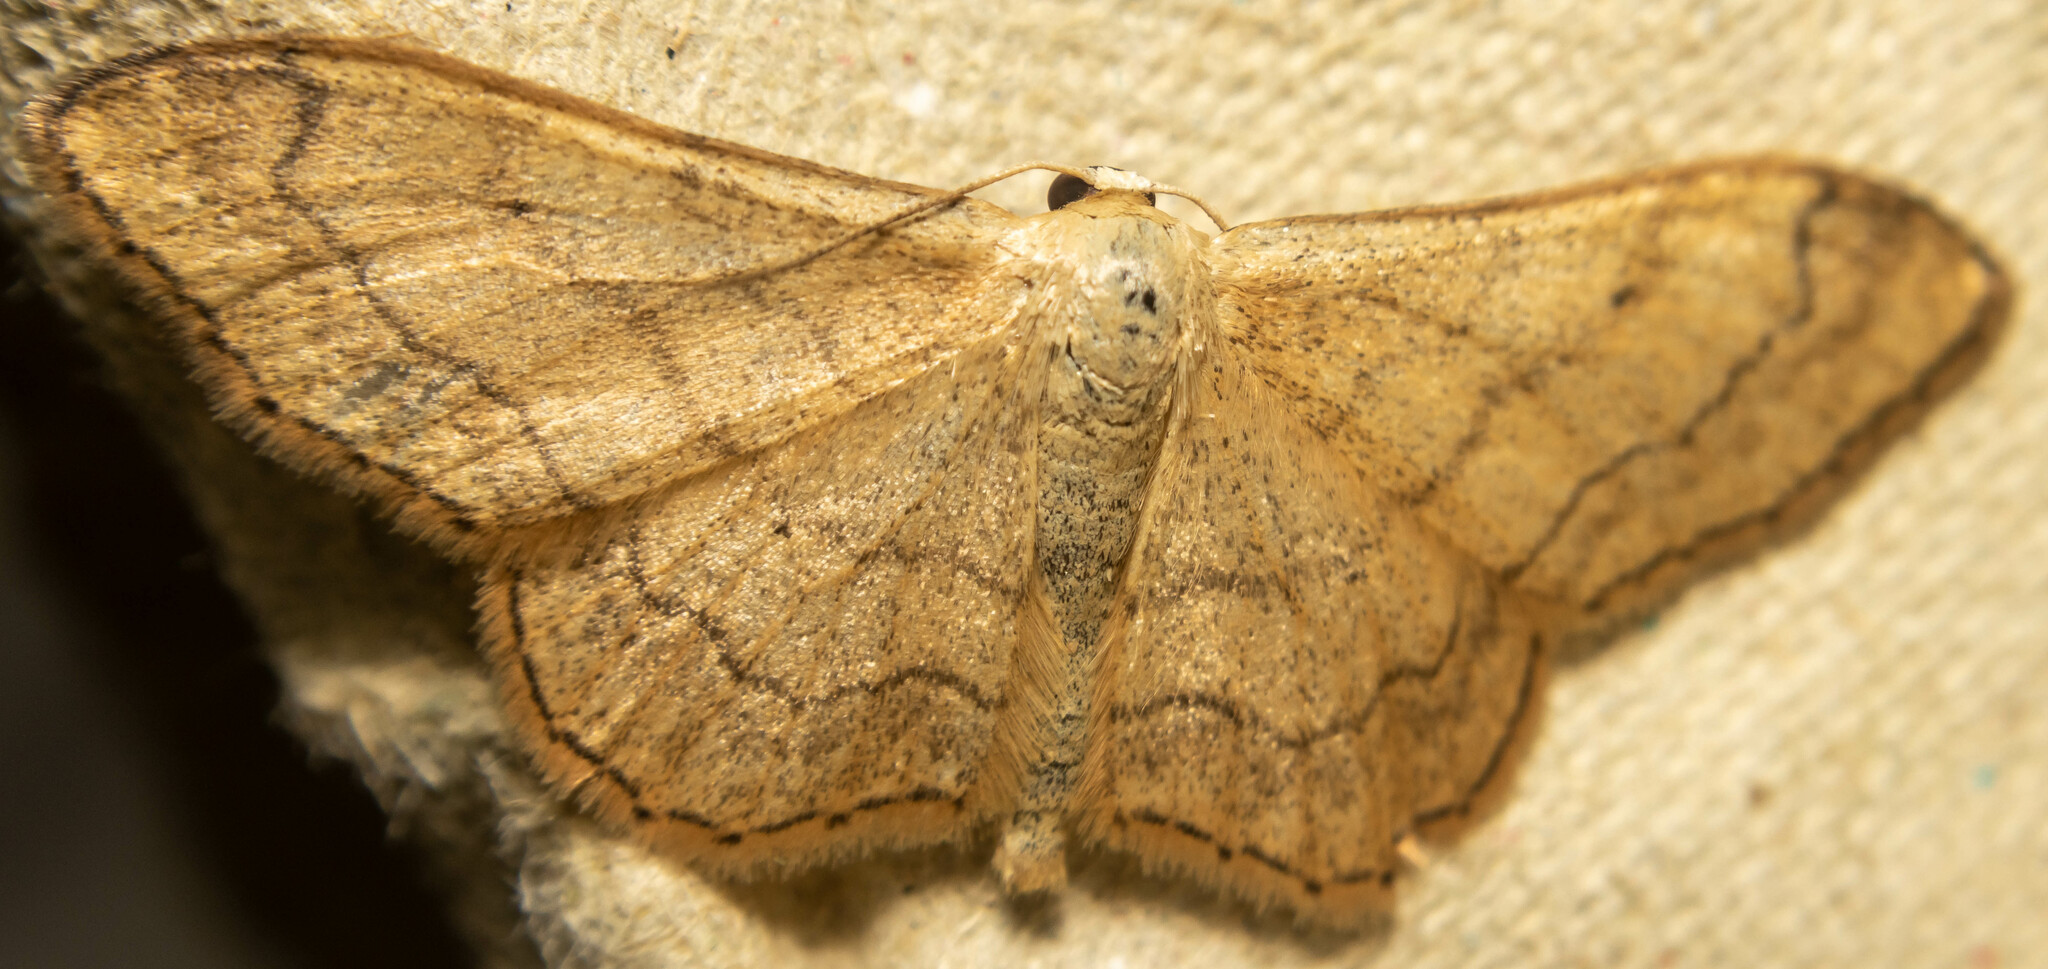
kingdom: Animalia
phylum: Arthropoda
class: Insecta
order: Lepidoptera
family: Geometridae
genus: Idaea
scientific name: Idaea aversata
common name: Riband wave
